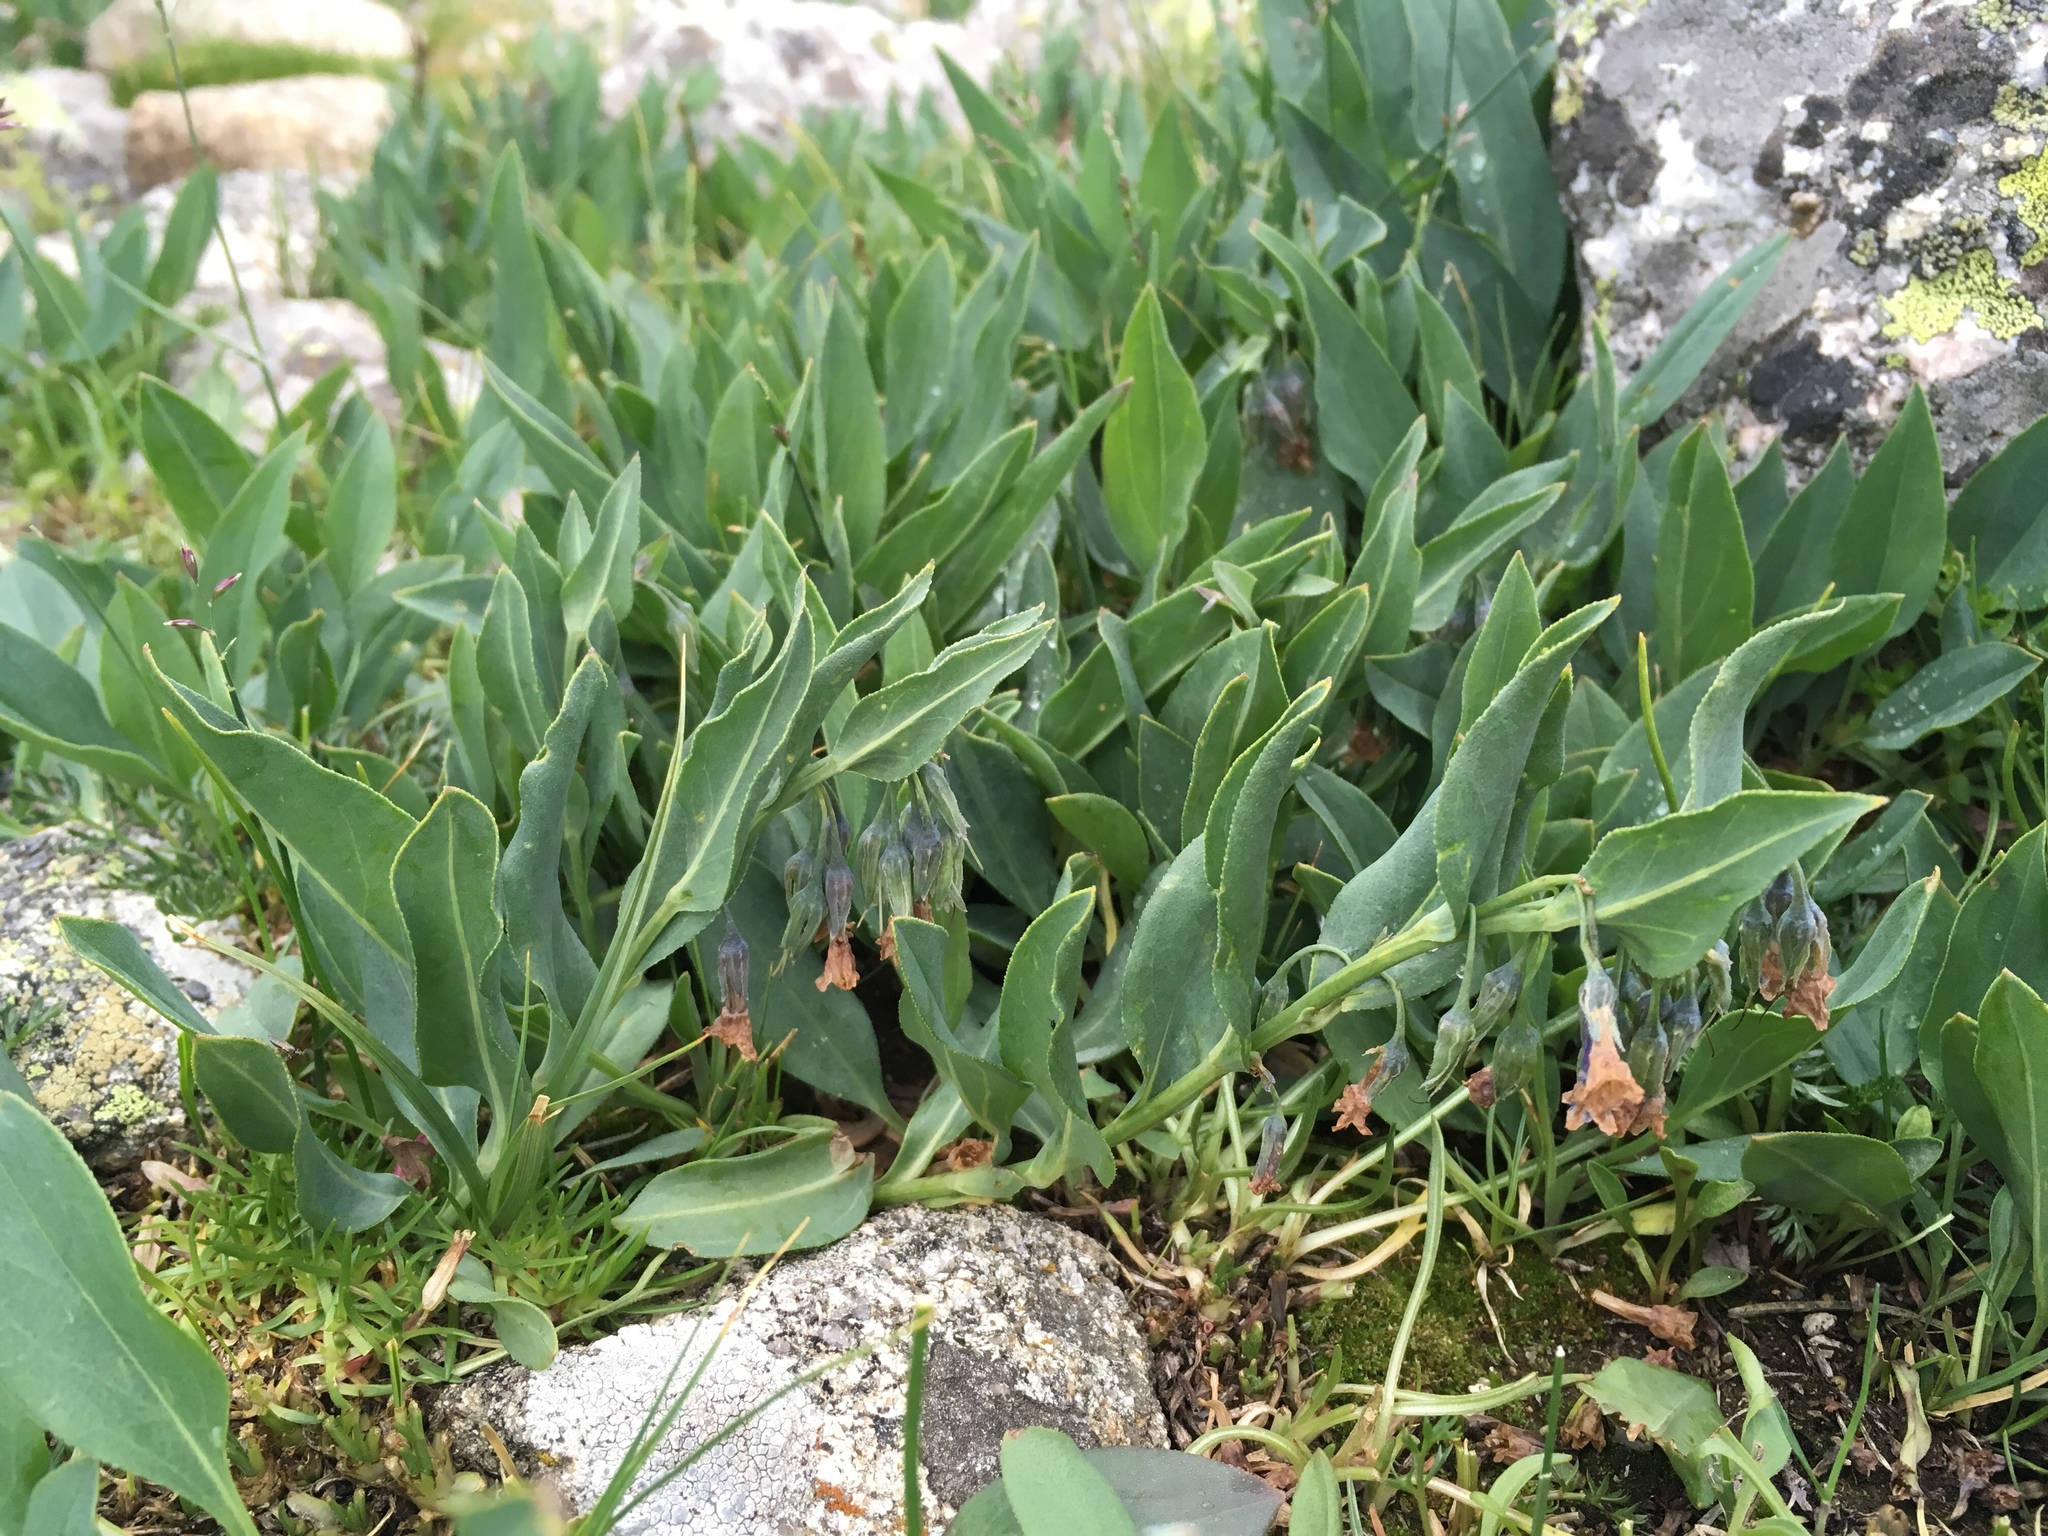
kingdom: Plantae
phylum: Tracheophyta
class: Magnoliopsida
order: Boraginales
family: Boraginaceae
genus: Mertensia
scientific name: Mertensia ovata
